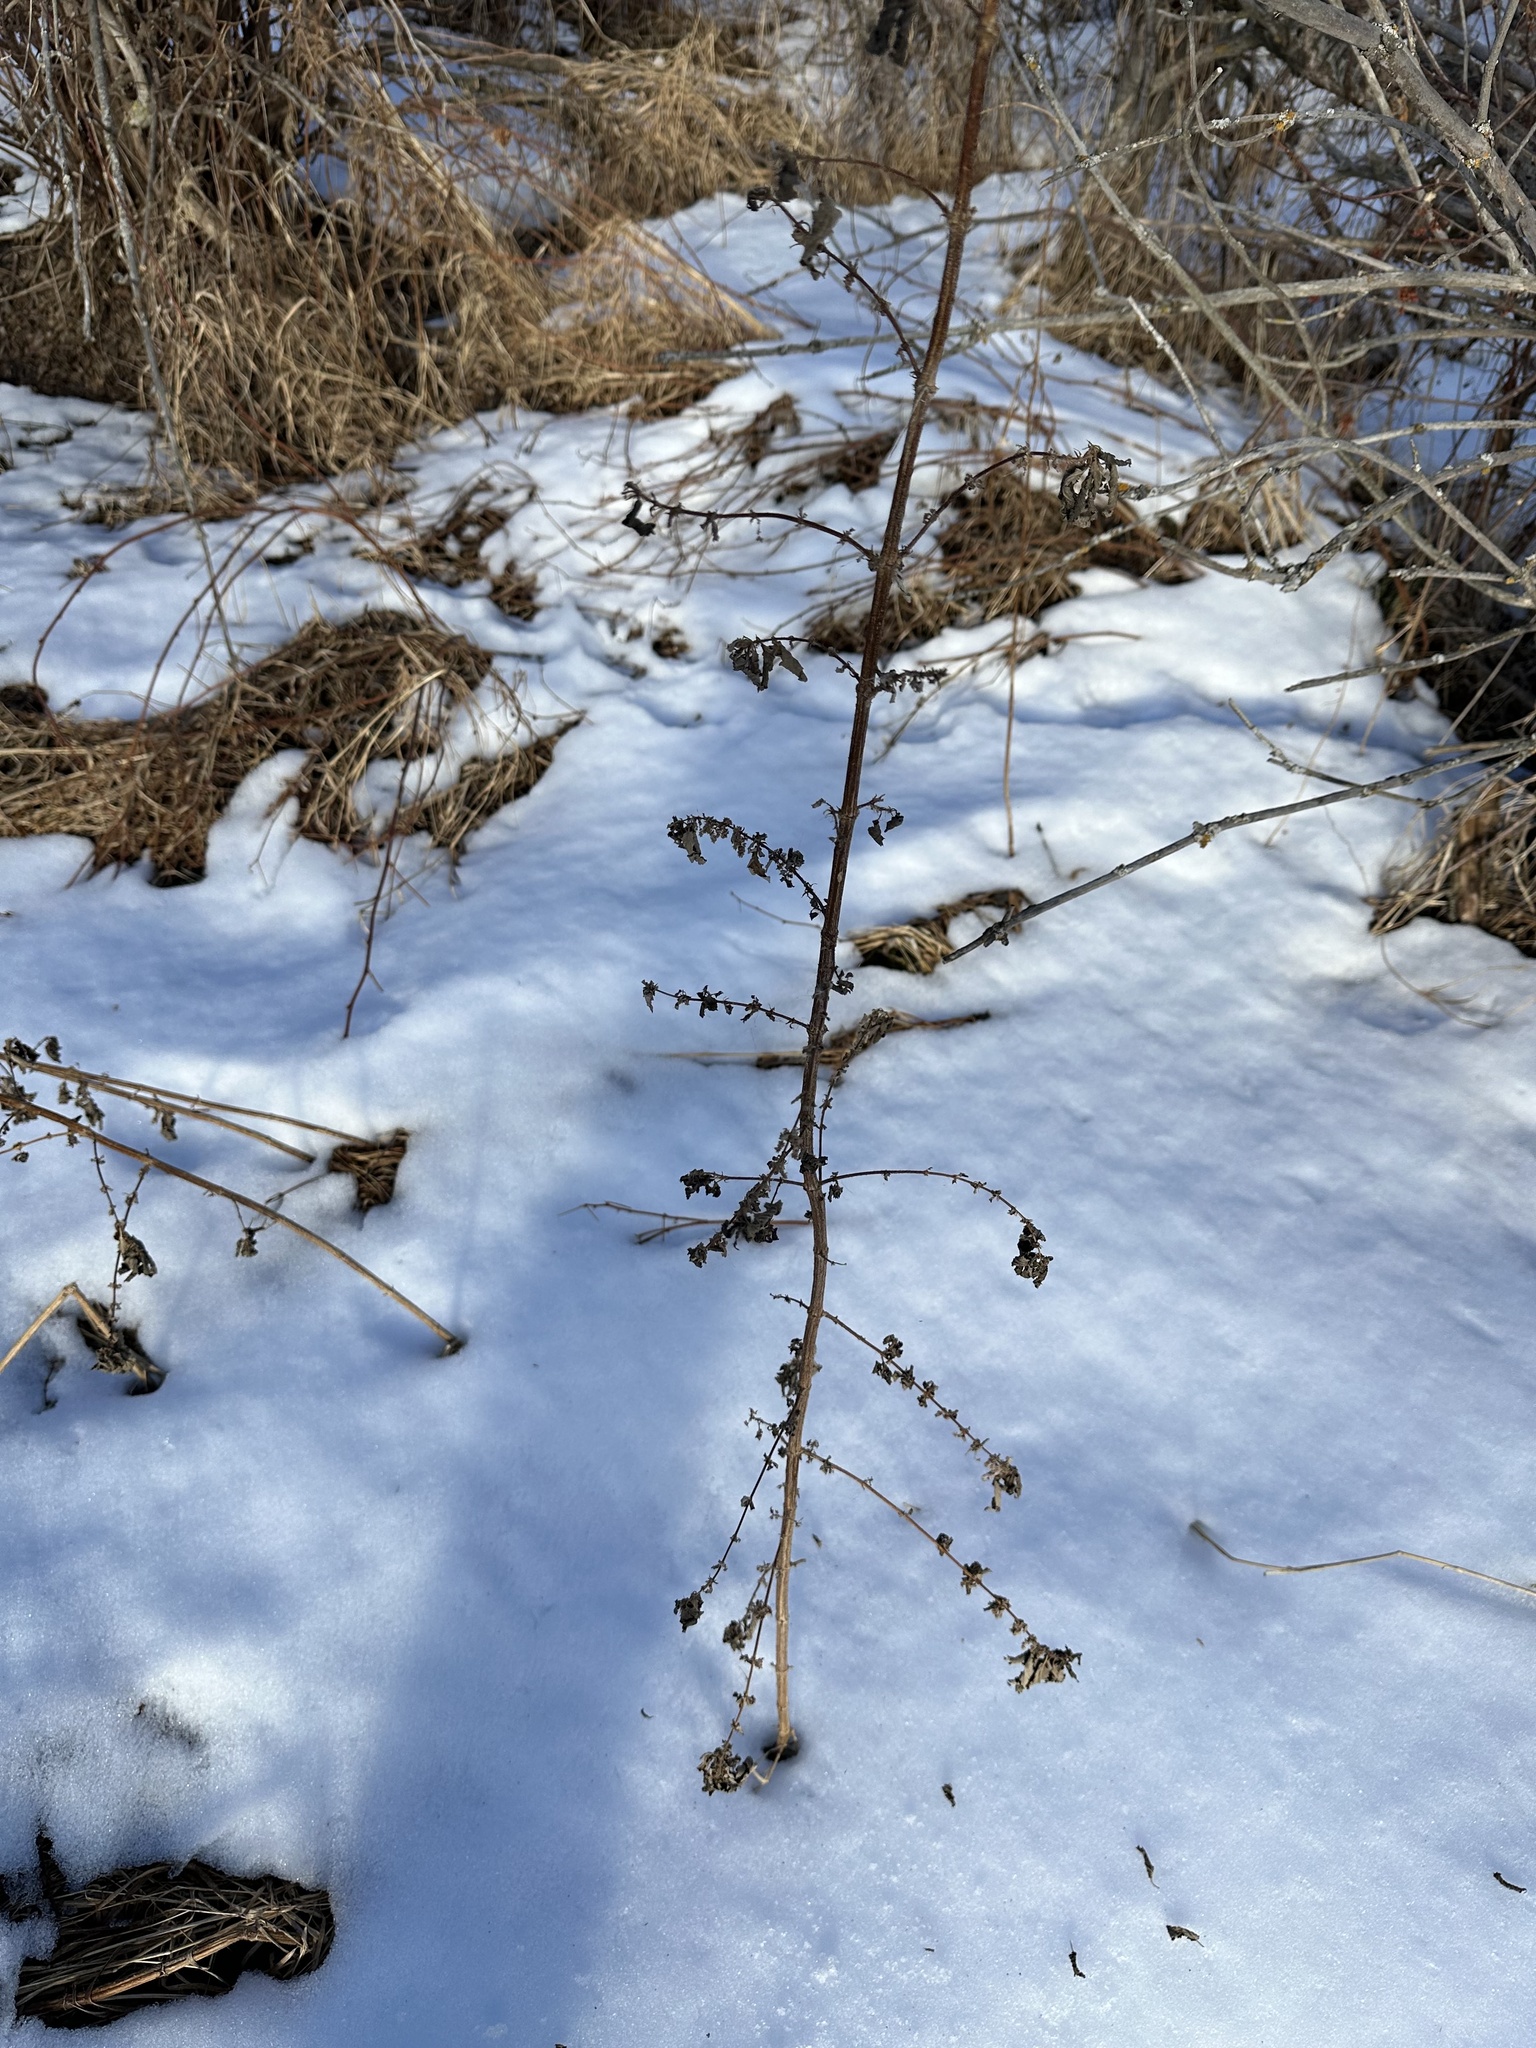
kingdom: Plantae
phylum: Tracheophyta
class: Magnoliopsida
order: Rosales
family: Urticaceae
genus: Urtica
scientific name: Urtica gracilis
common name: Slender stinging nettle
